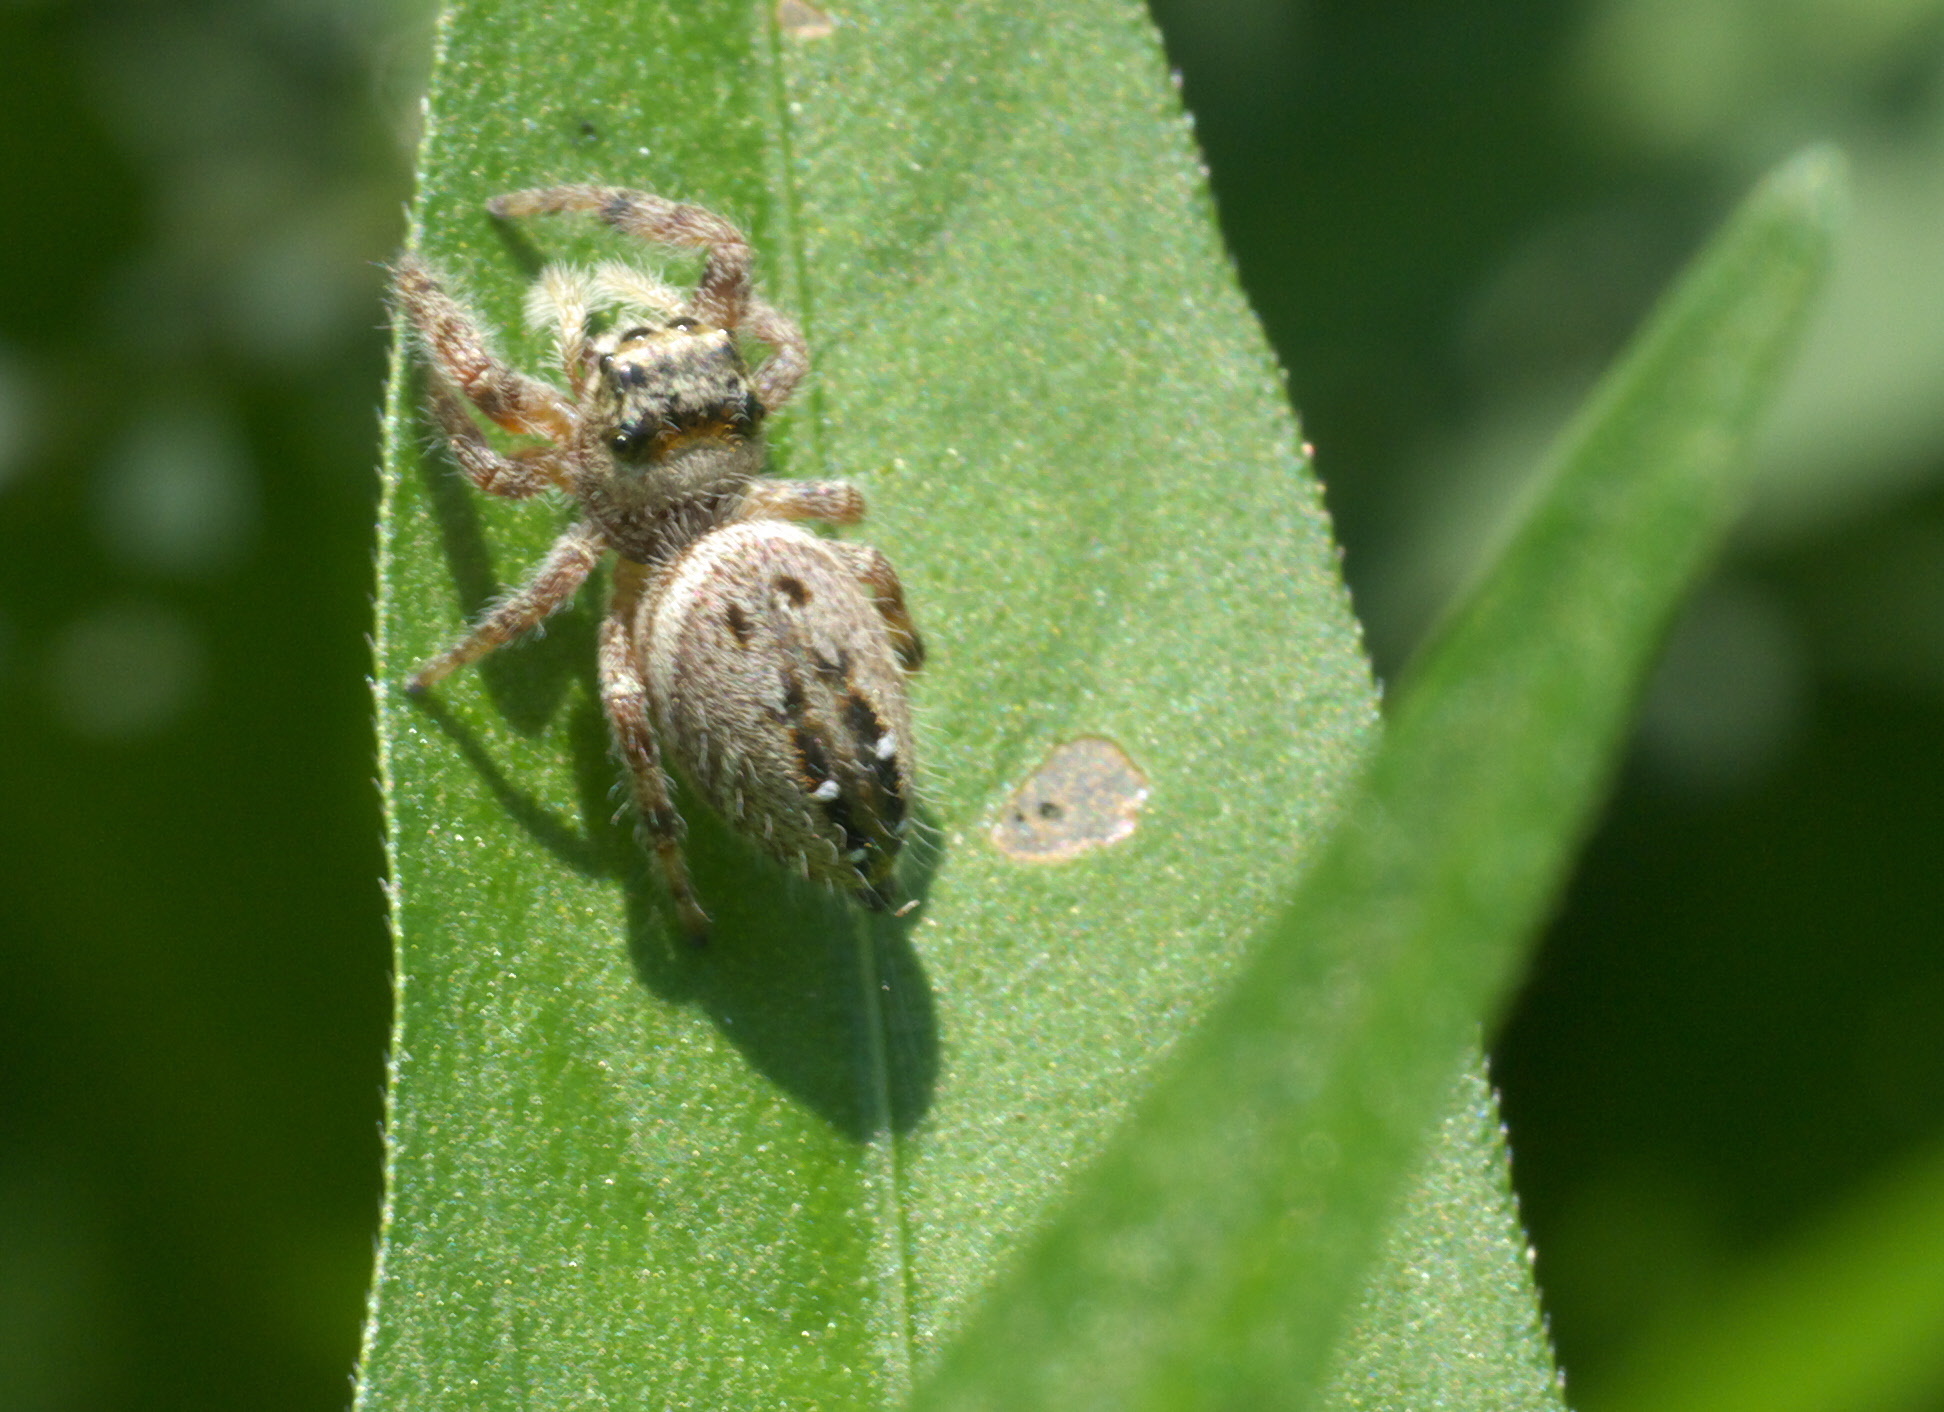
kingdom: Animalia
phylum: Arthropoda
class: Arachnida
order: Araneae
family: Salticidae
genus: Phidippus
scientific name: Phidippus clarus
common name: Brilliant jumping spider
